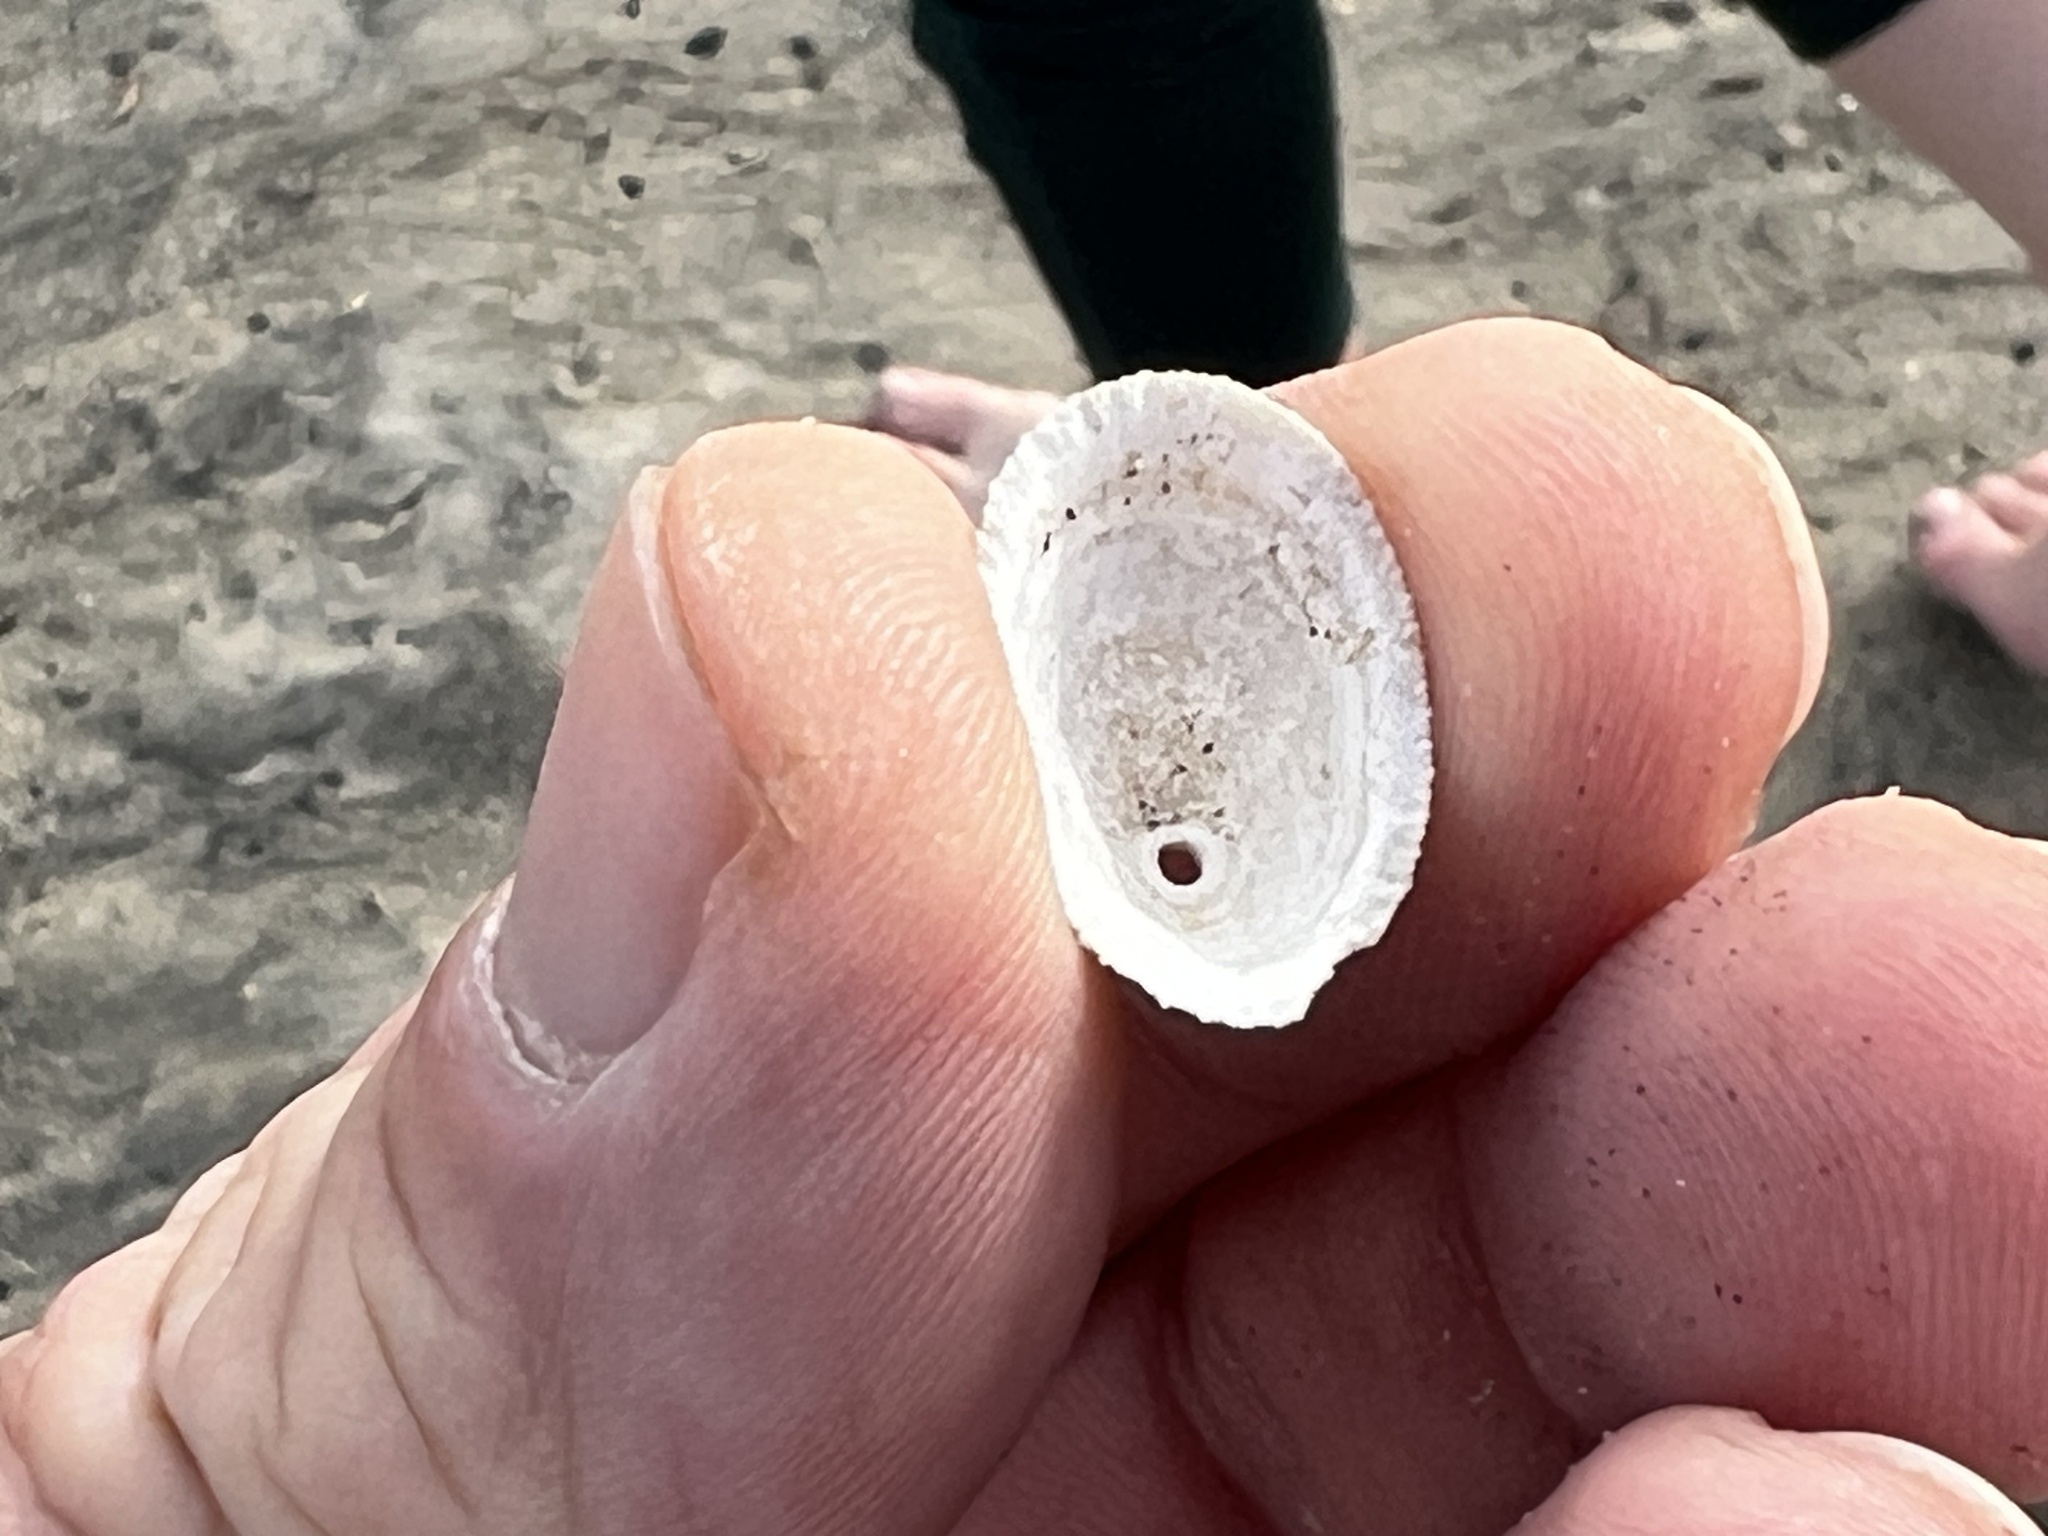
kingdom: Animalia
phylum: Mollusca
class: Gastropoda
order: Lepetellida
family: Fissurellidae
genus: Diodora
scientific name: Diodora aspera
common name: Rough keyhole limpet
